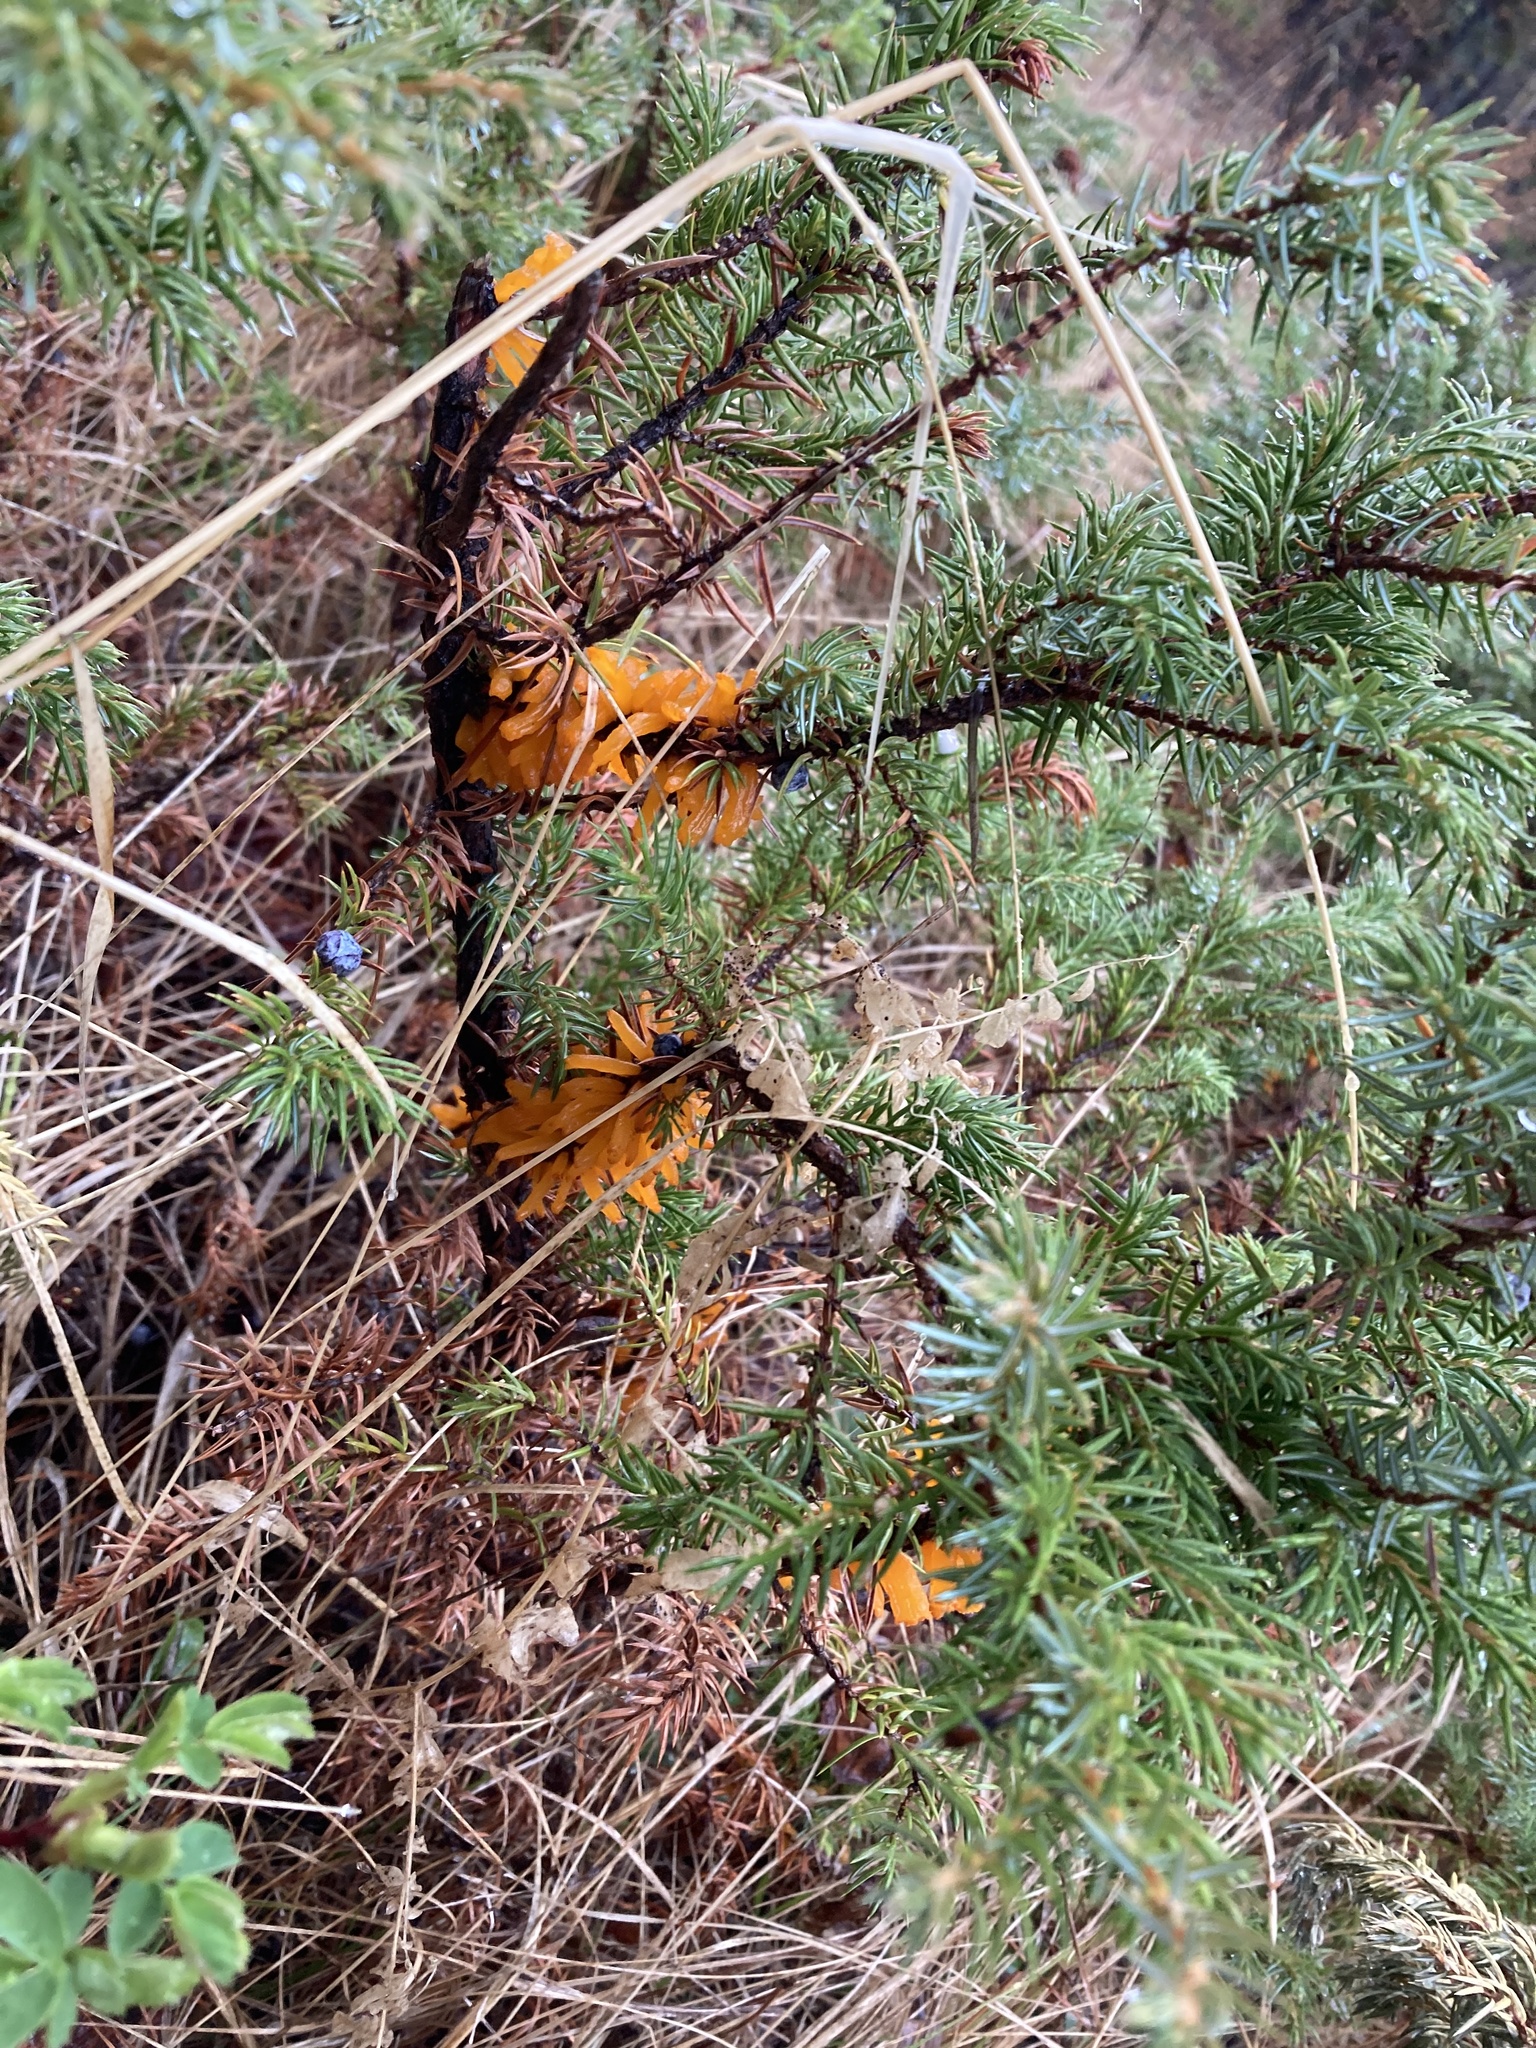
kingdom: Fungi
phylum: Basidiomycota
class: Pucciniomycetes
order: Pucciniales
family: Gymnosporangiaceae
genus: Gymnosporangium
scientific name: Gymnosporangium juniperi-virginianae
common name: Juniper-apple rust
